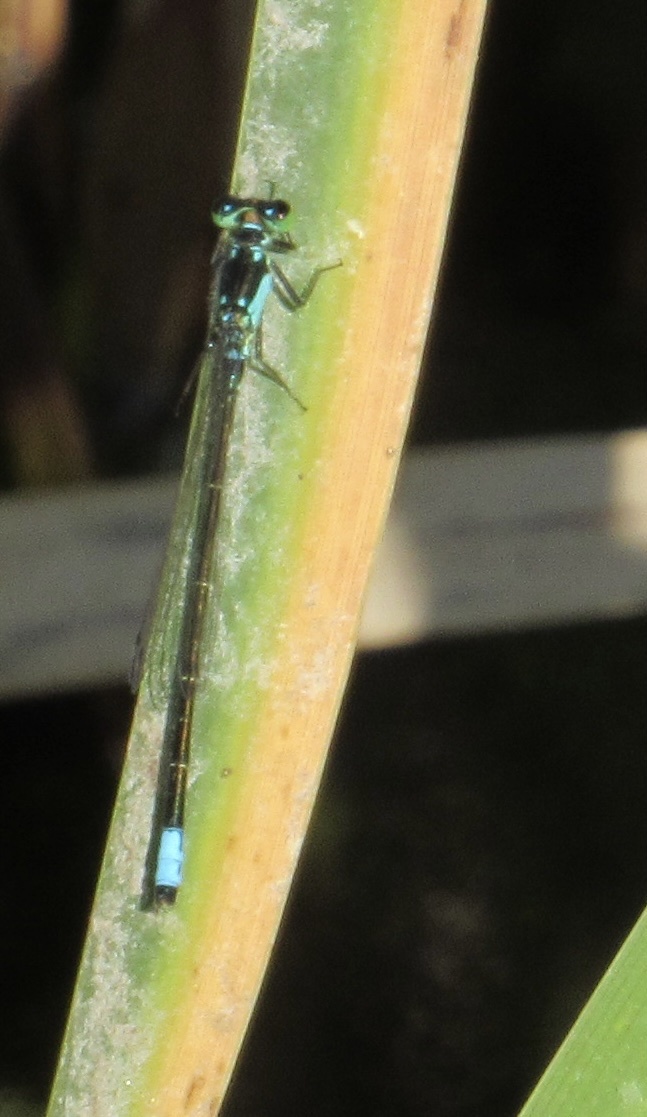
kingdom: Animalia
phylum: Arthropoda
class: Insecta
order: Odonata
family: Coenagrionidae
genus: Ischnura
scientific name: Ischnura damula
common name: Plains forktail
